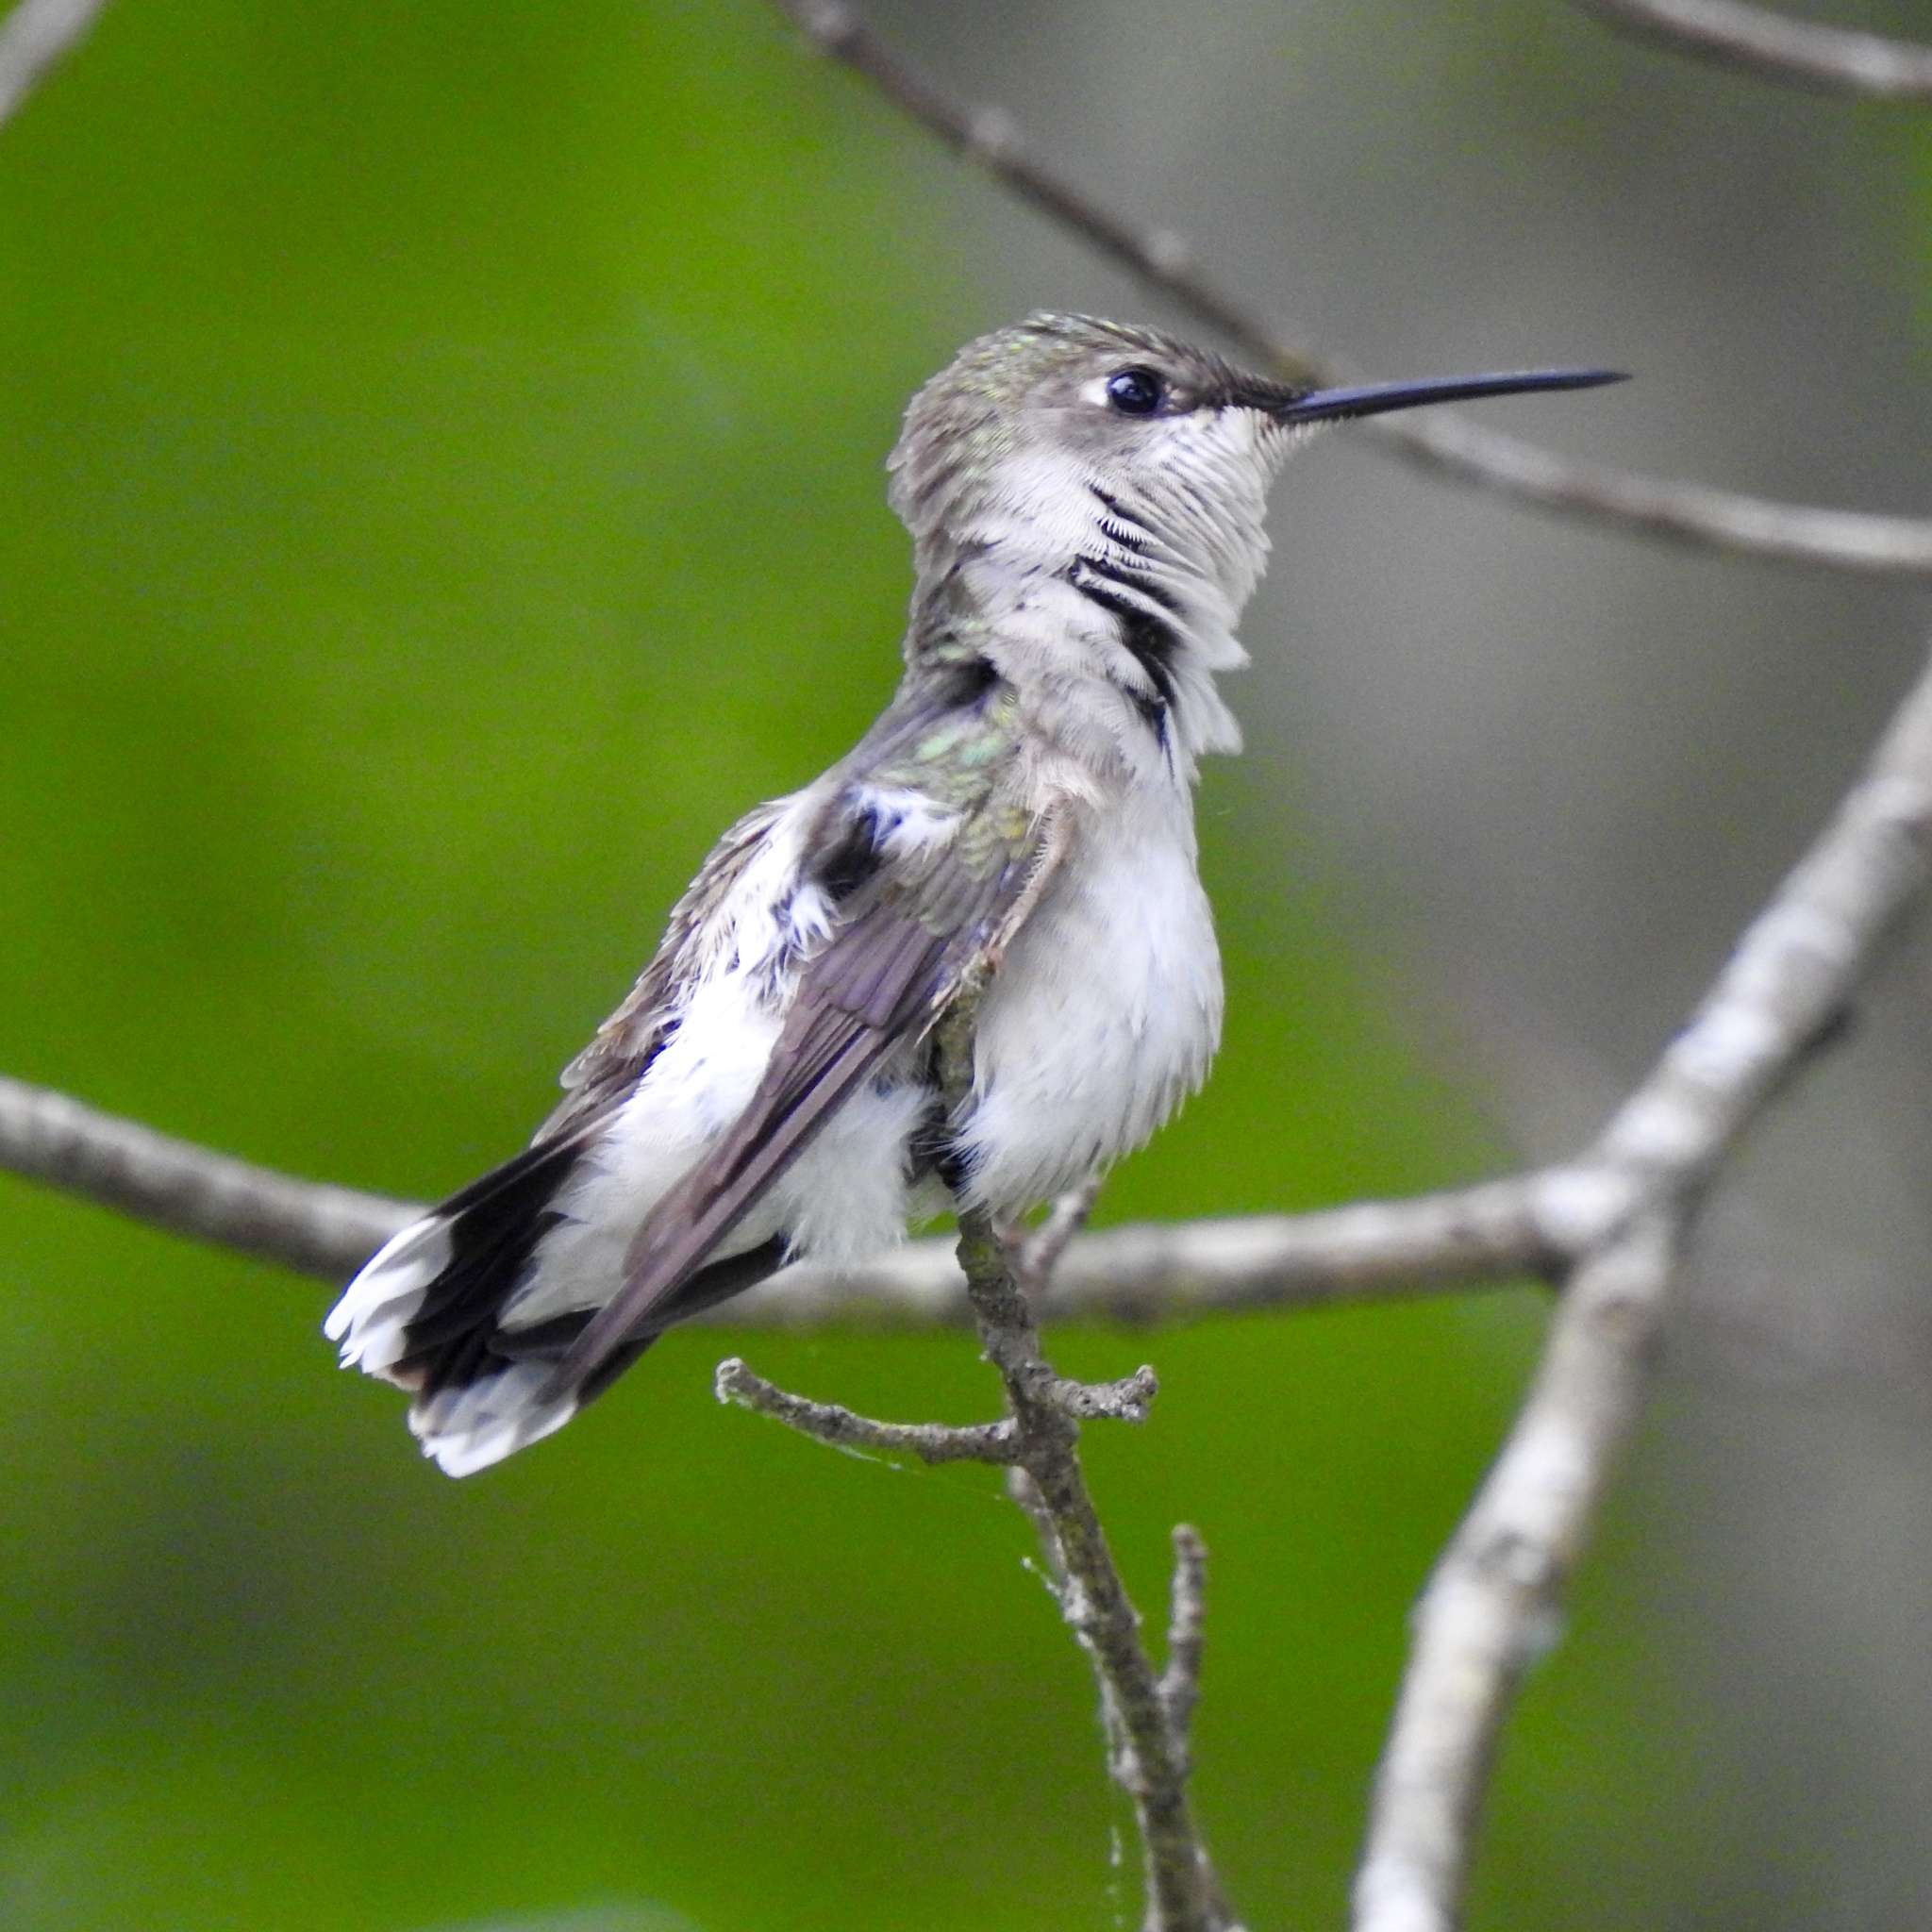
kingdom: Animalia
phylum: Chordata
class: Aves
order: Apodiformes
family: Trochilidae
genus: Archilochus
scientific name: Archilochus colubris
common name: Ruby-throated hummingbird
